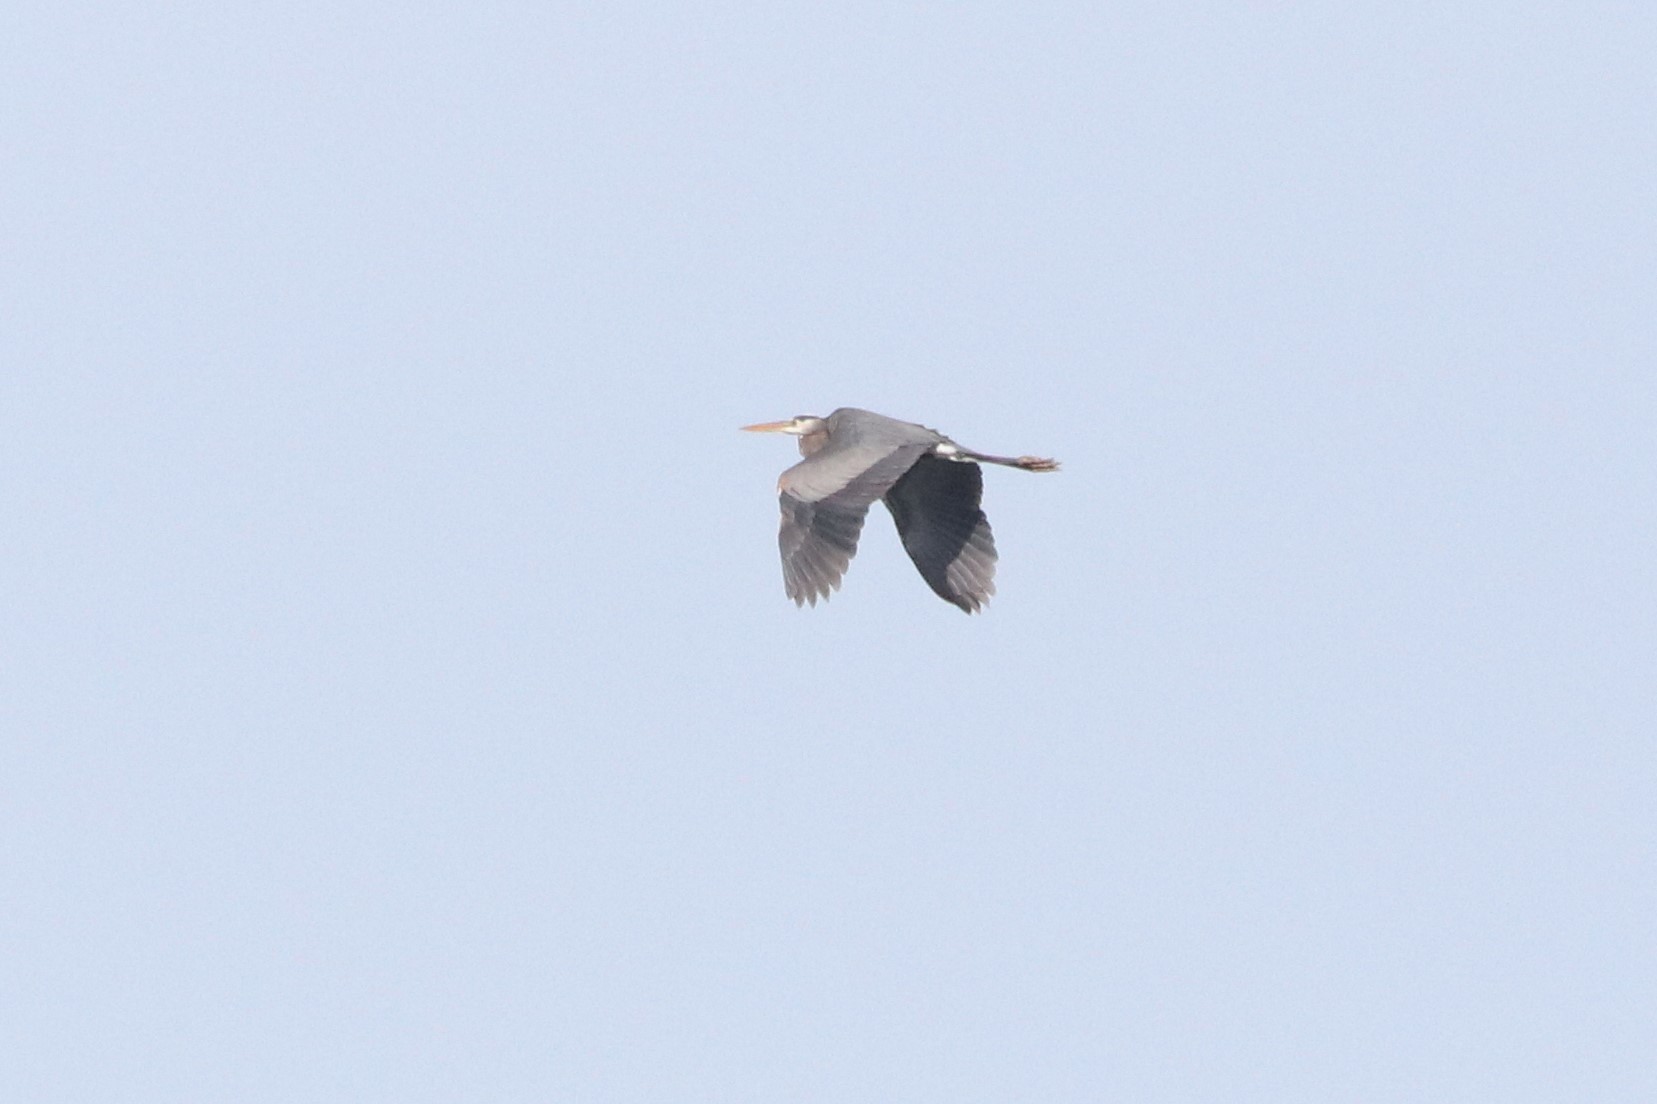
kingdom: Animalia
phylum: Chordata
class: Aves
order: Pelecaniformes
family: Ardeidae
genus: Ardea
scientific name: Ardea herodias
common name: Great blue heron
